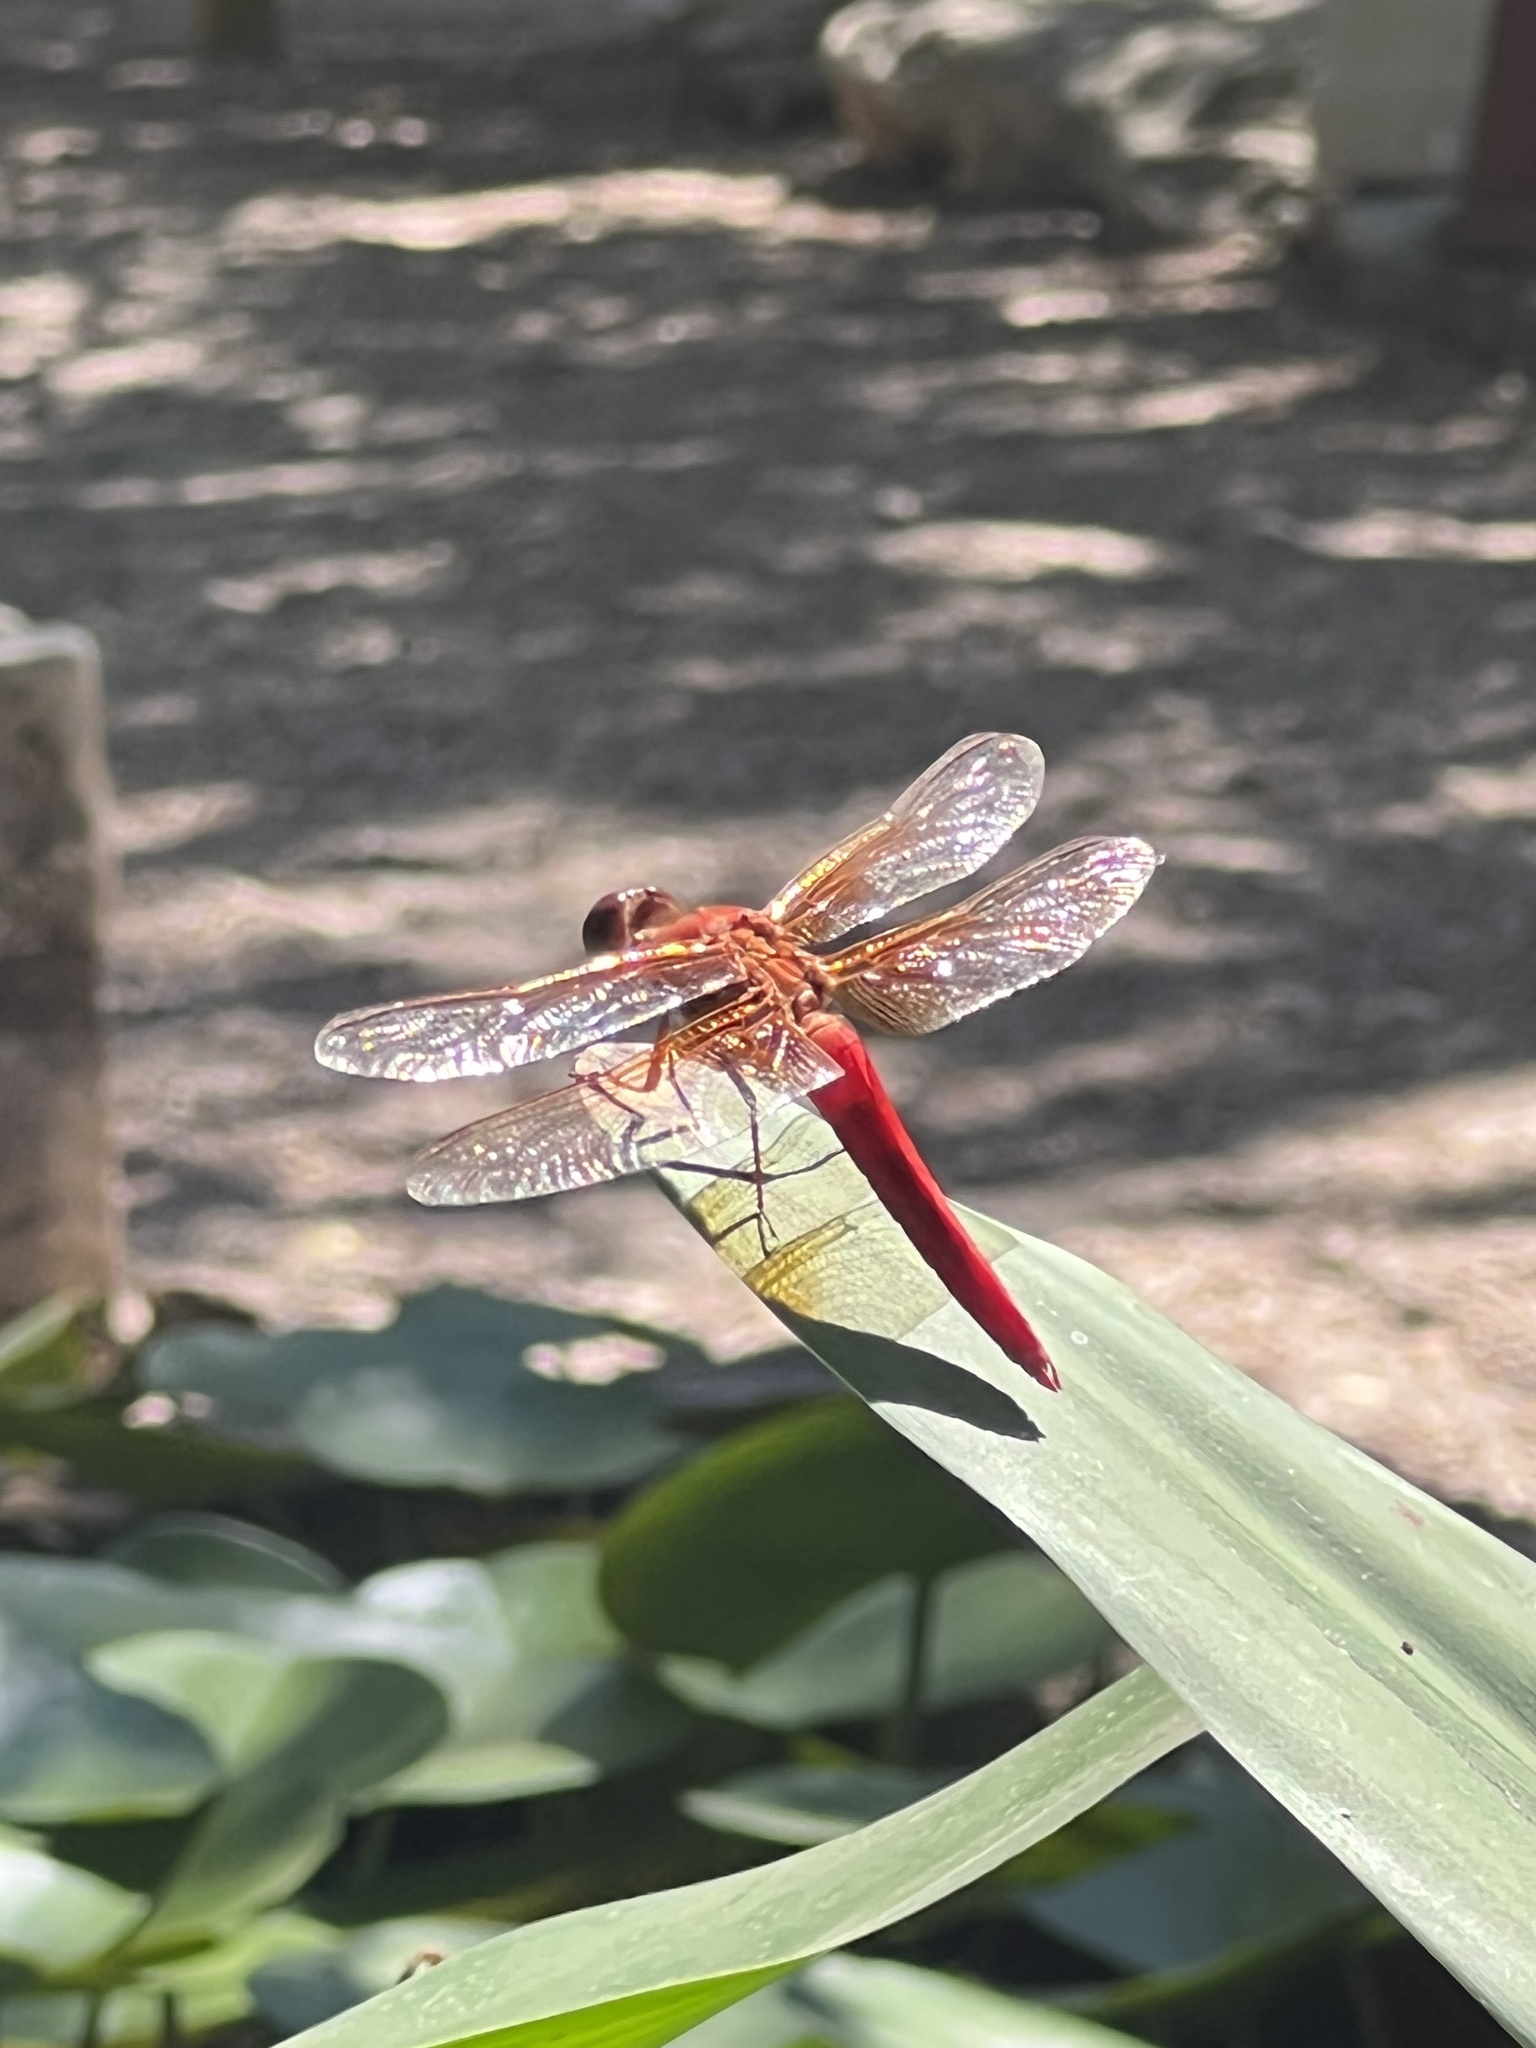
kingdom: Animalia
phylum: Arthropoda
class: Insecta
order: Odonata
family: Libellulidae
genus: Libellula
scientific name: Libellula croceipennis
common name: Neon skimmer
